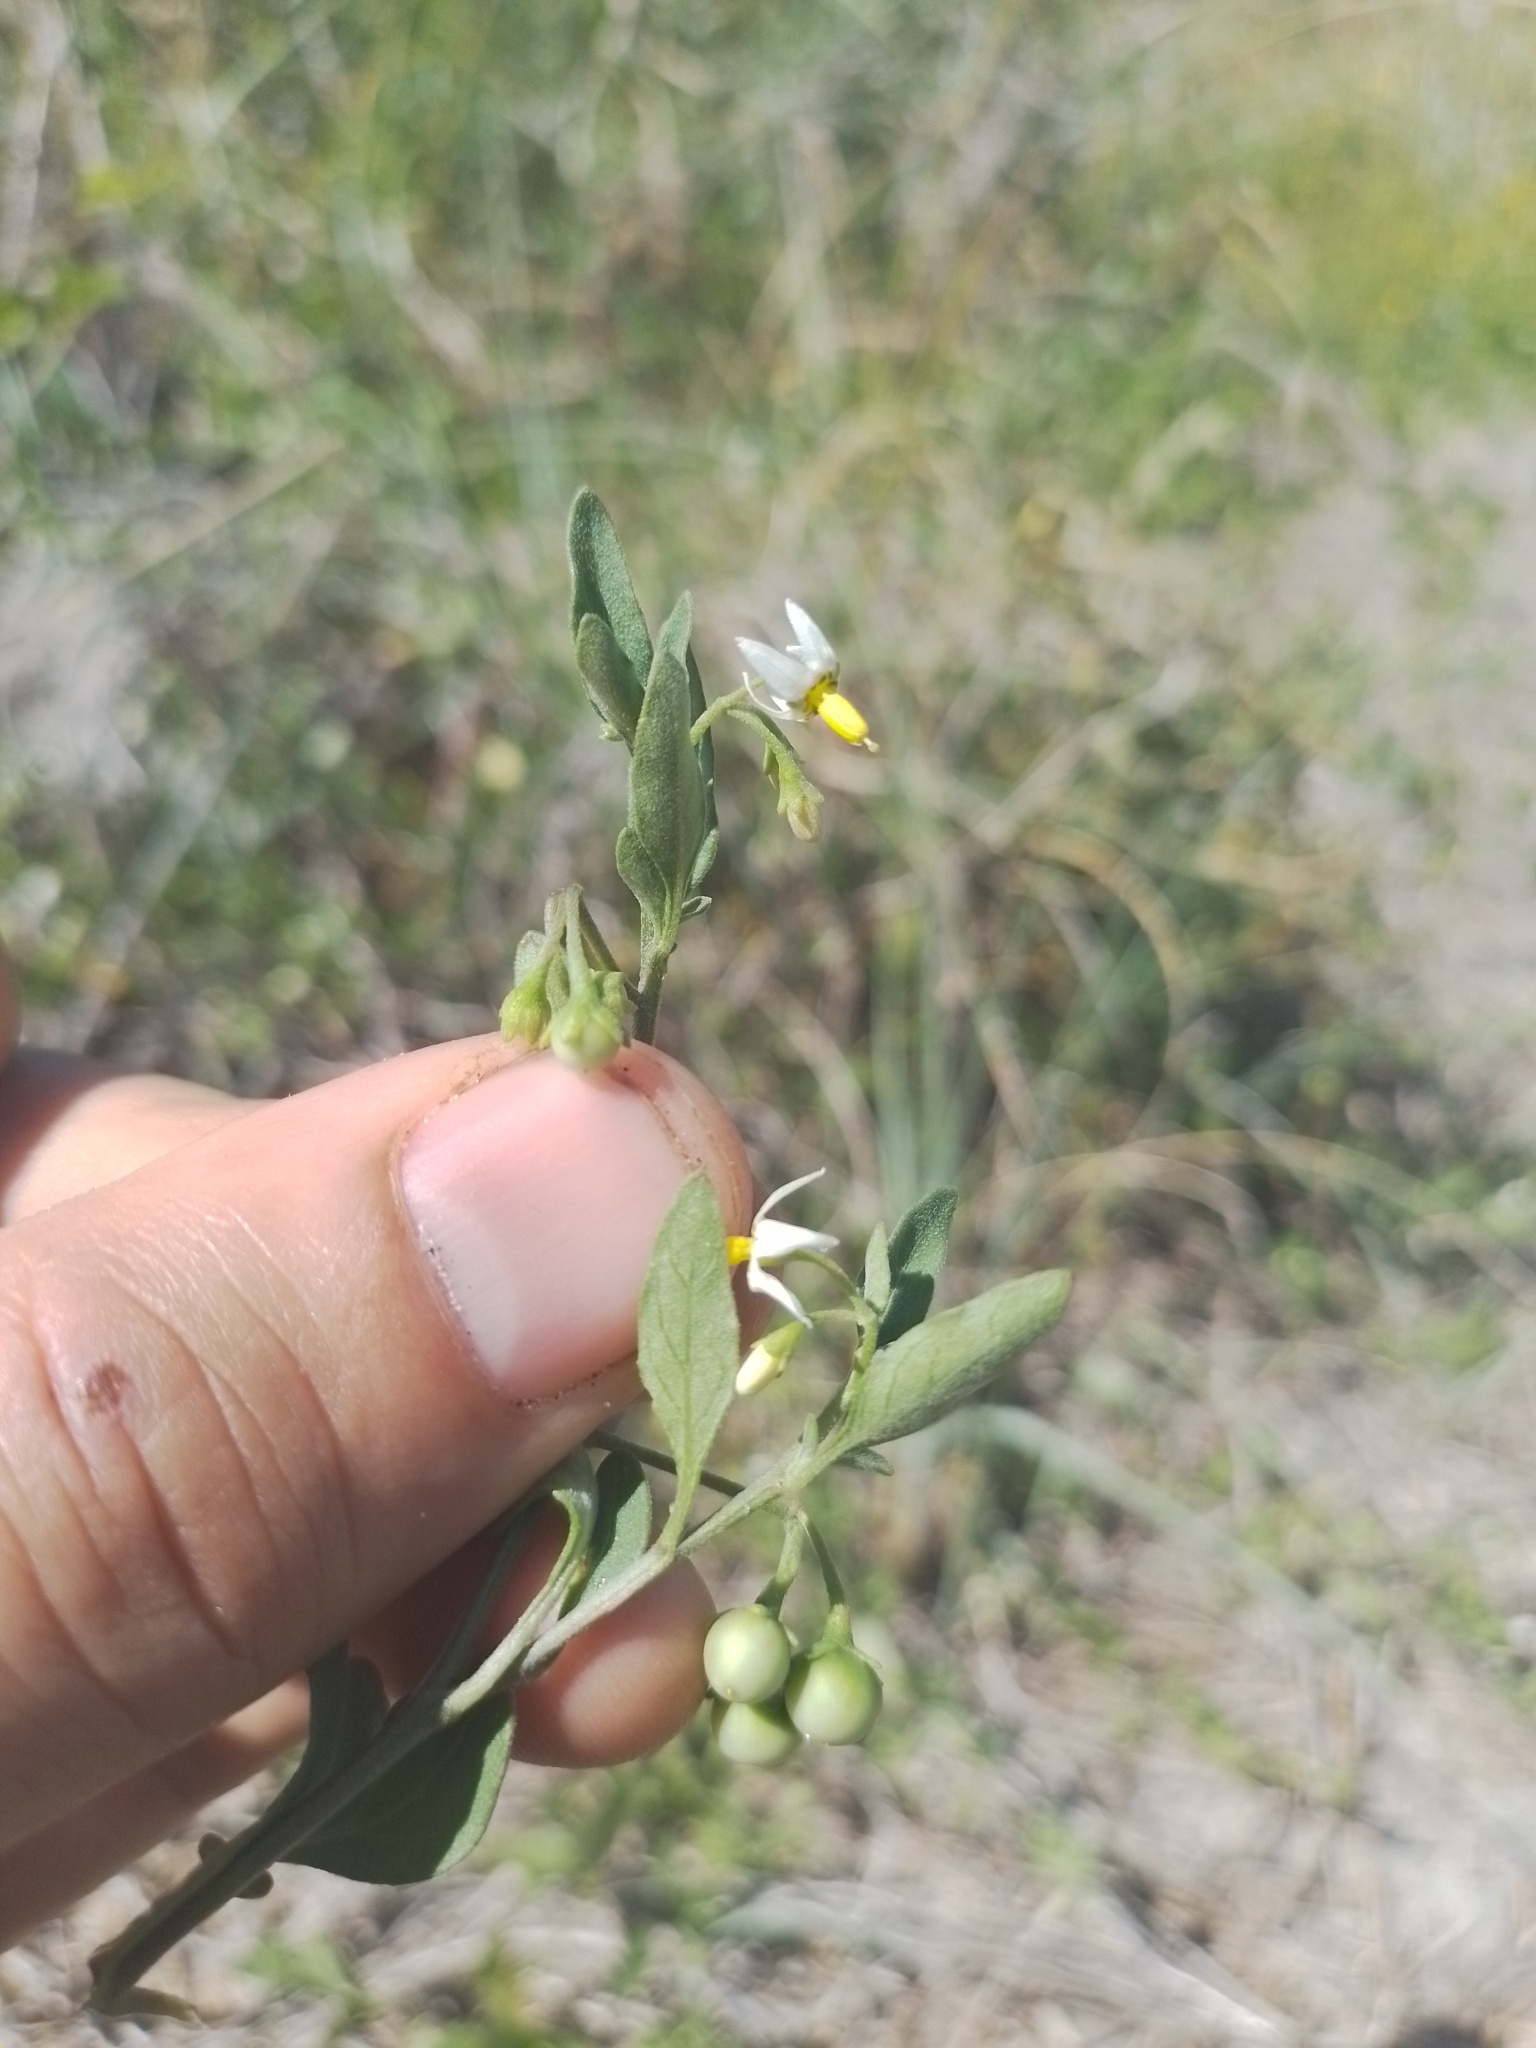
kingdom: Plantae
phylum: Tracheophyta
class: Magnoliopsida
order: Solanales
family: Solanaceae
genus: Solanum
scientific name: Solanum chenopodioides
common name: Tall nightshade
